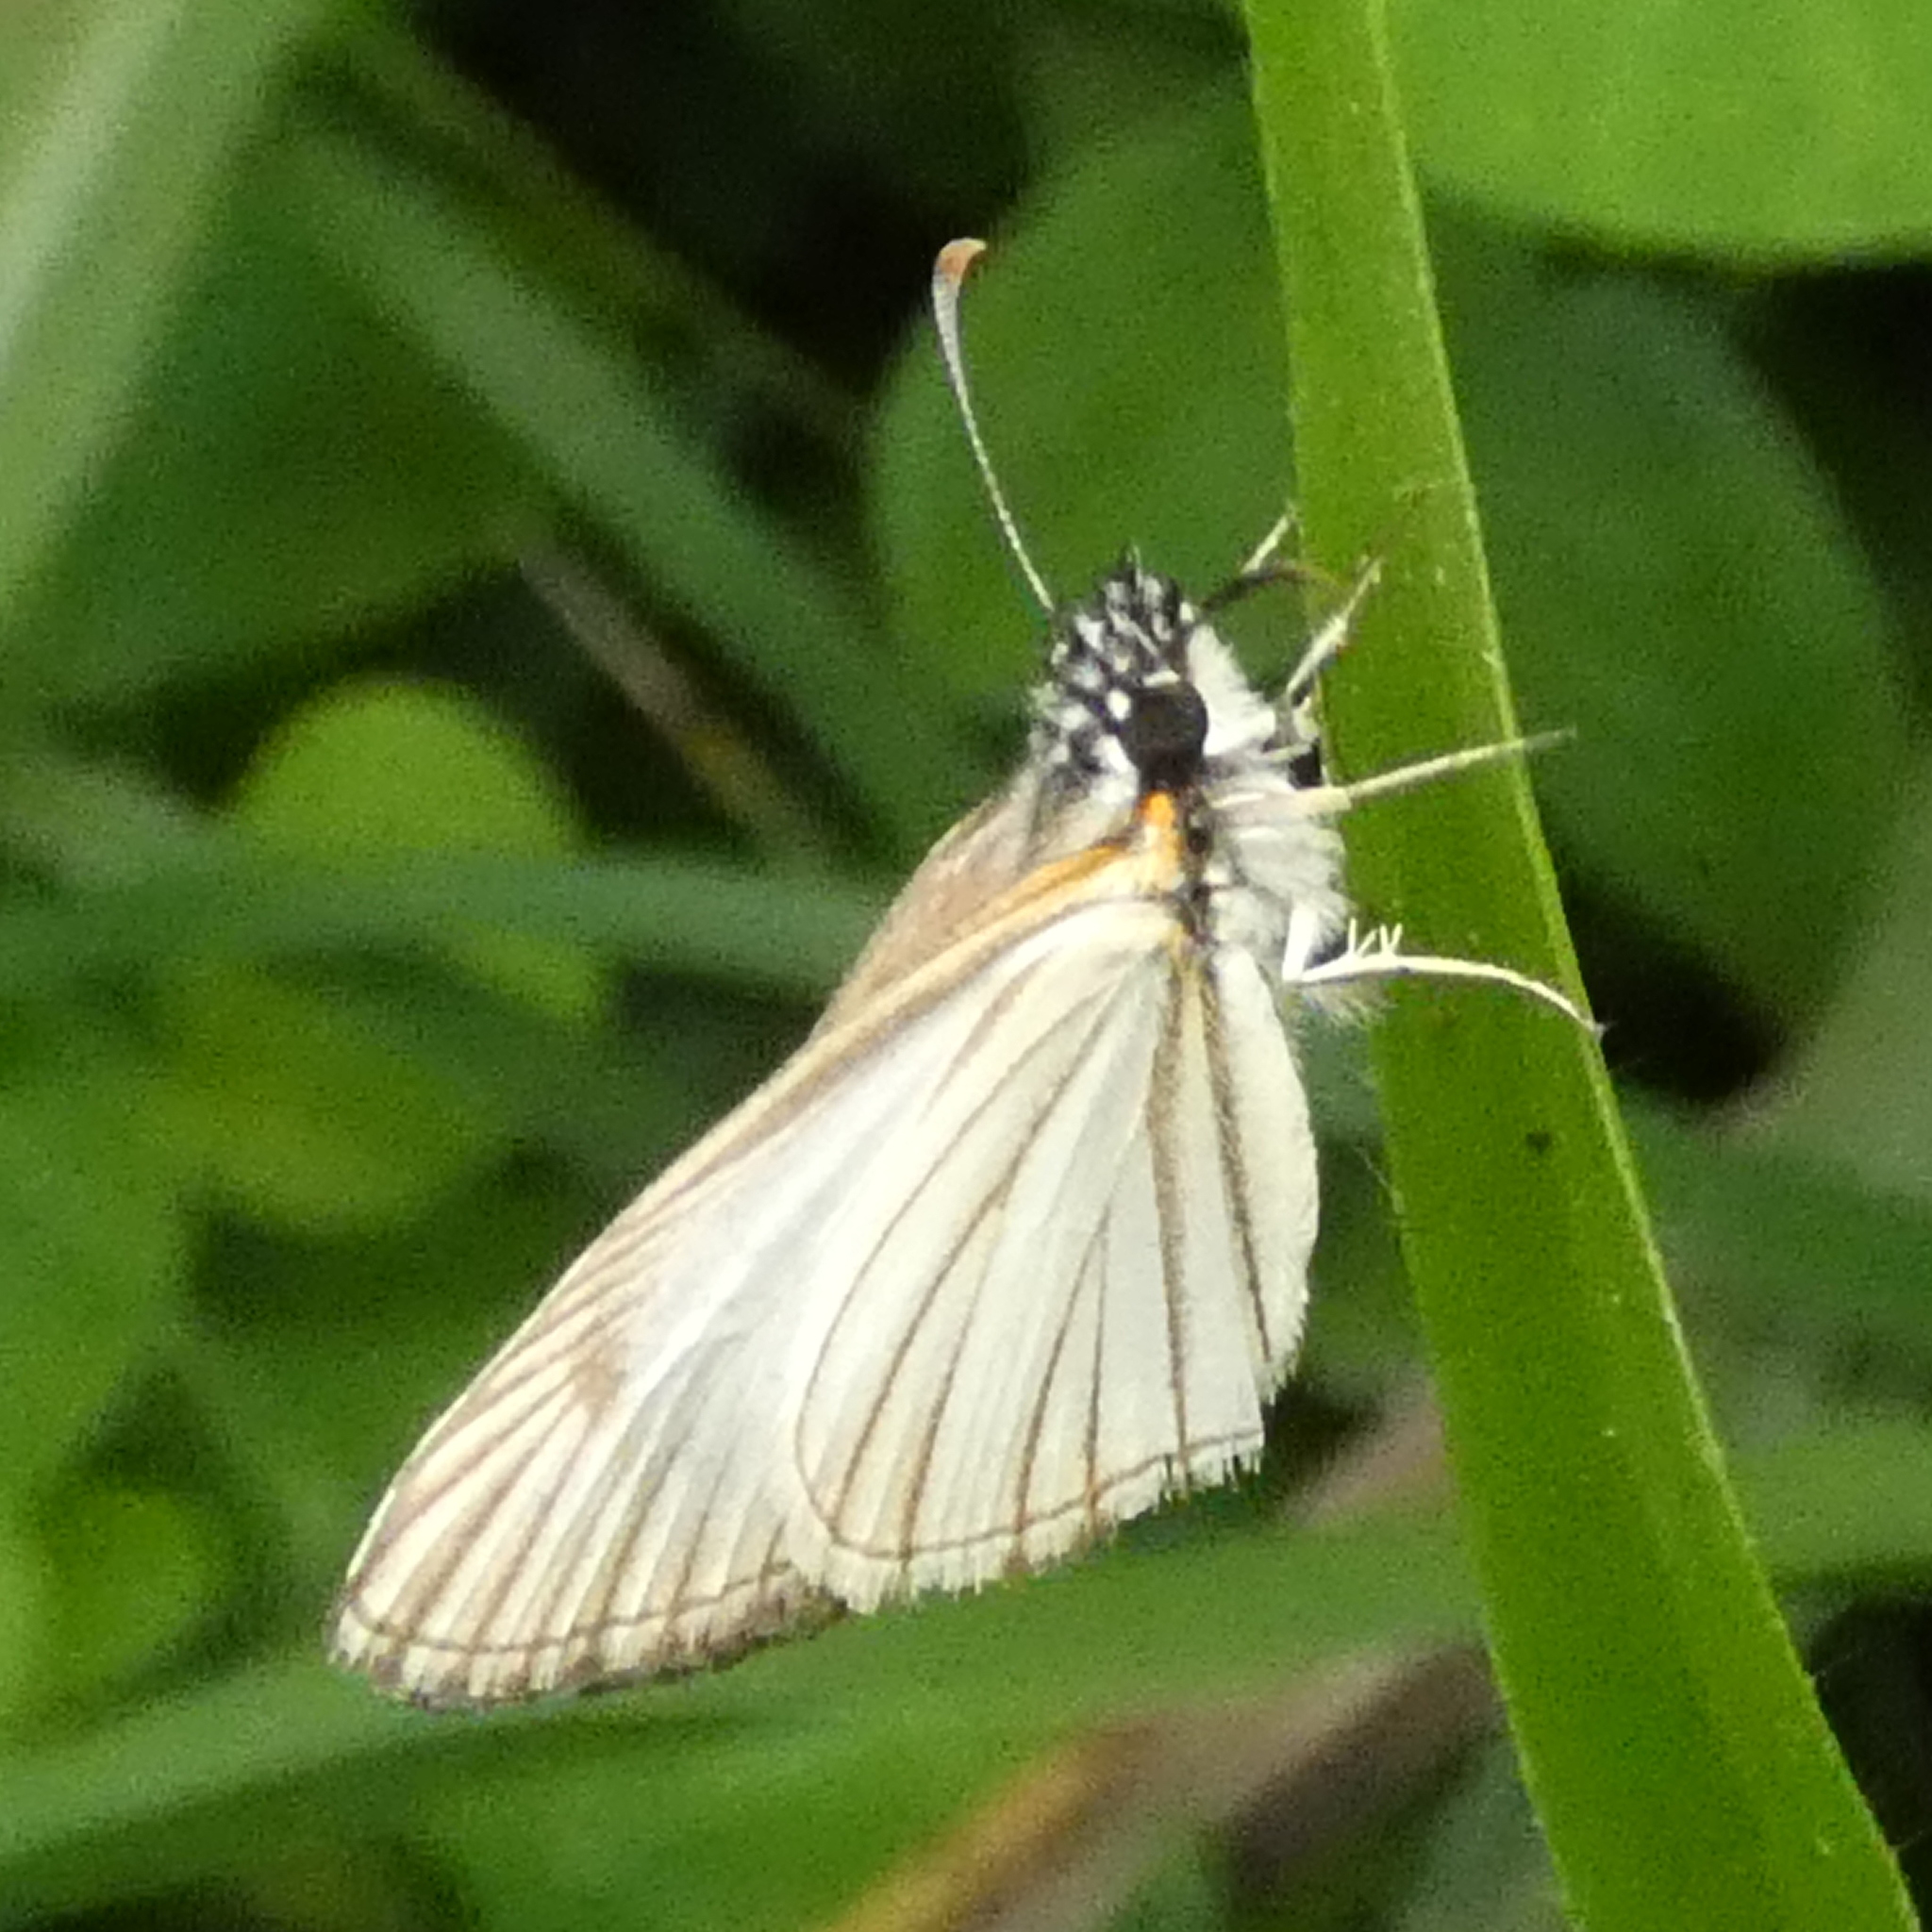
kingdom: Animalia
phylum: Arthropoda
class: Insecta
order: Lepidoptera
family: Hesperiidae
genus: Heliopetes
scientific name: Heliopetes arsalte
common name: Veined white-skipper
